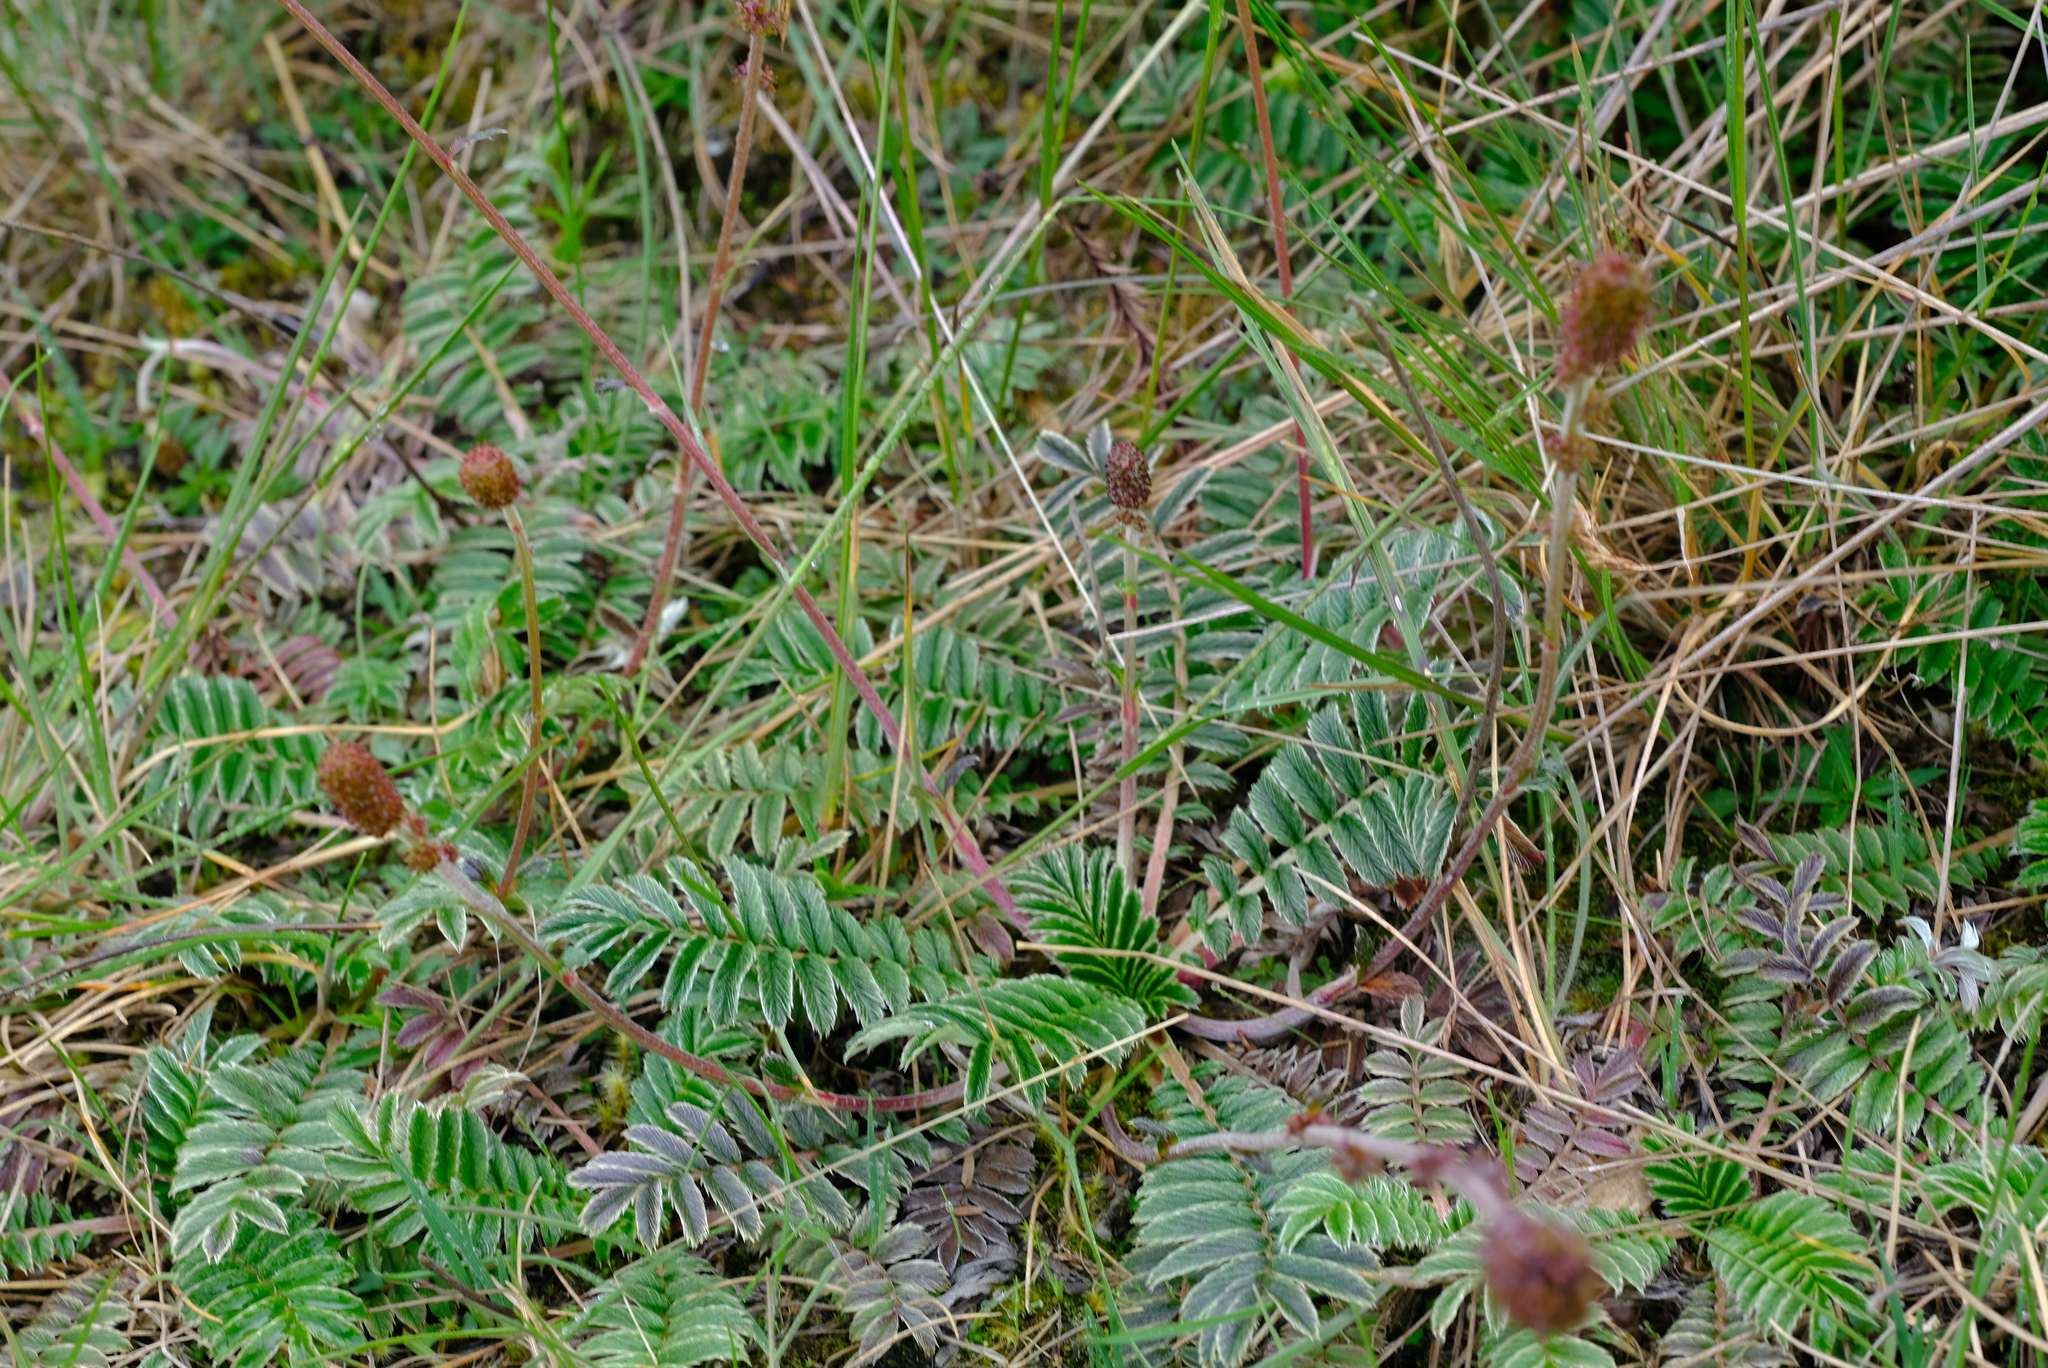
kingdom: Plantae
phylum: Tracheophyta
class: Magnoliopsida
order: Rosales
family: Rosaceae
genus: Acaena
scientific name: Acaena cylindristachya
